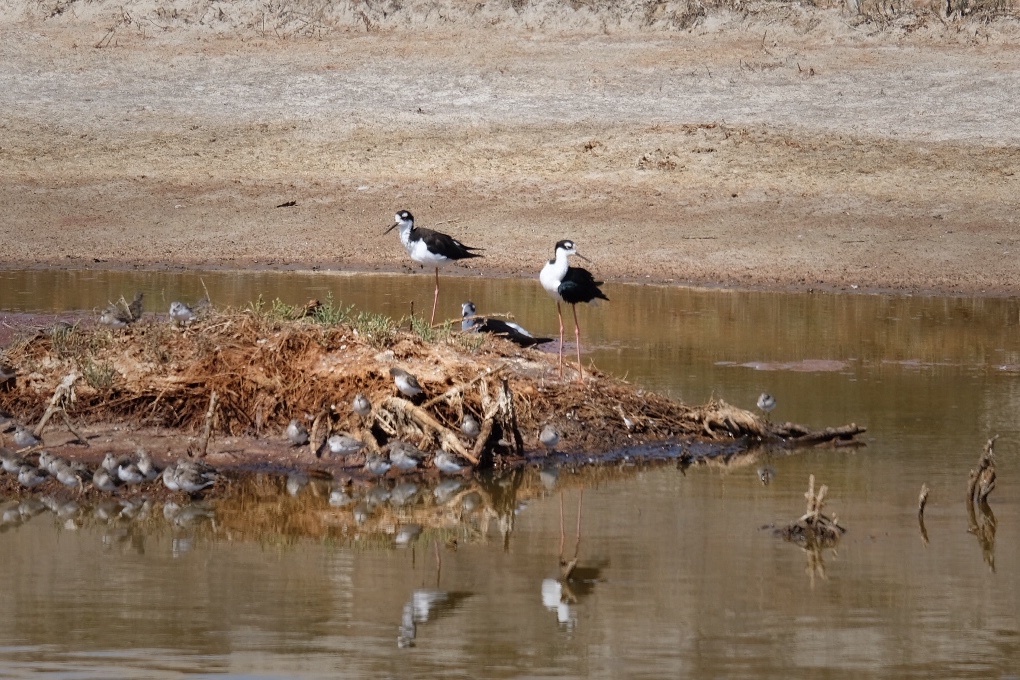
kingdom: Animalia
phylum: Chordata
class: Aves
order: Charadriiformes
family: Recurvirostridae
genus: Himantopus
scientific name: Himantopus mexicanus
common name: Black-necked stilt
